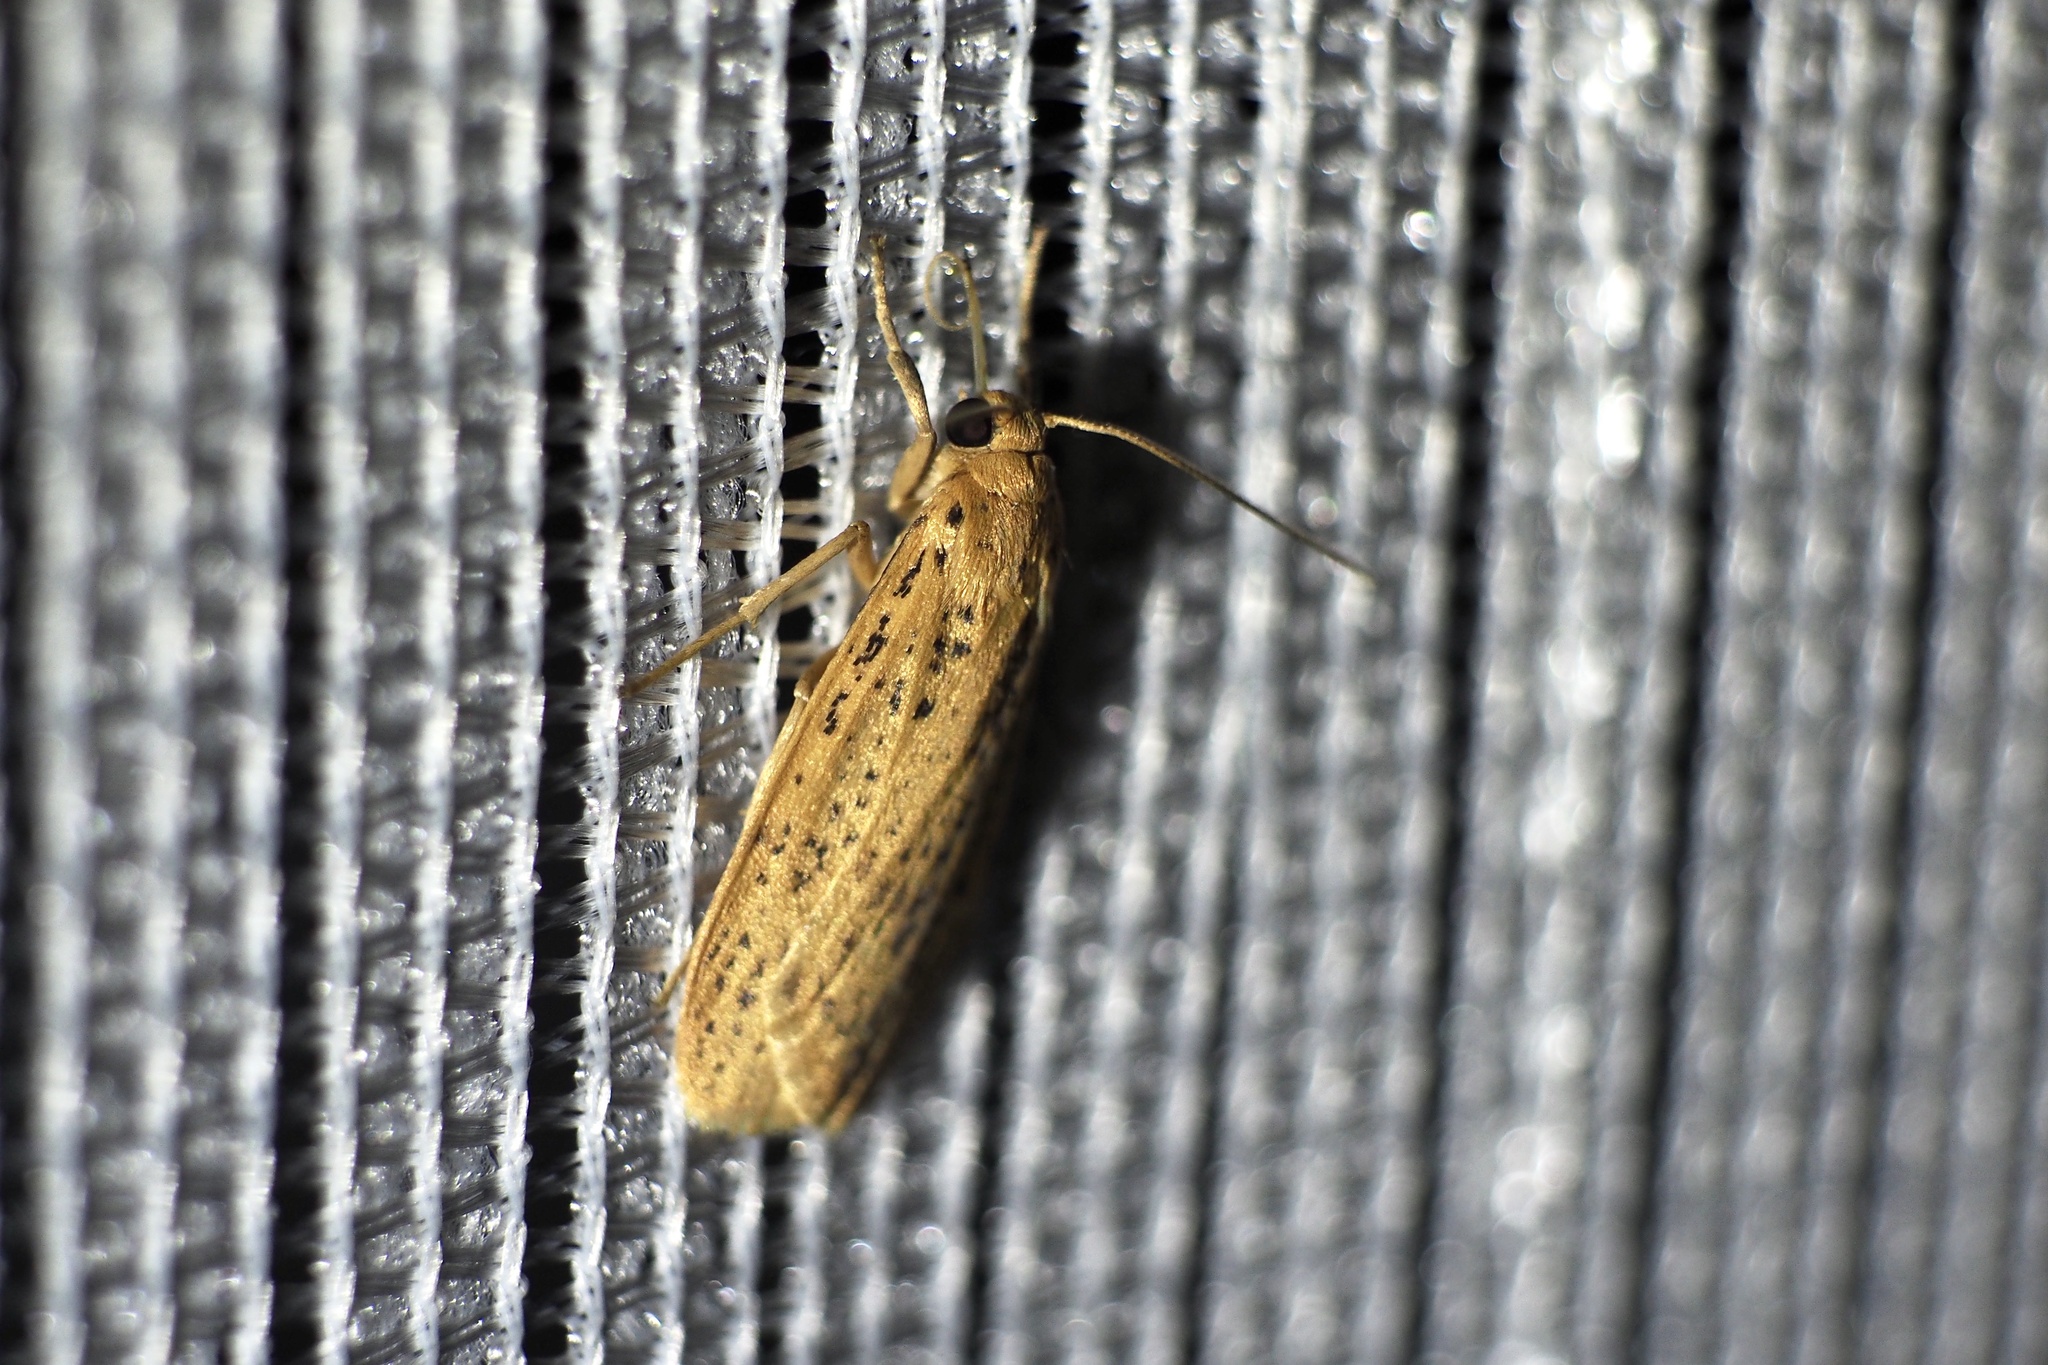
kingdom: Animalia
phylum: Arthropoda
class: Insecta
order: Lepidoptera
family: Erebidae
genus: Dolgoma
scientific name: Dolgoma cribrata
